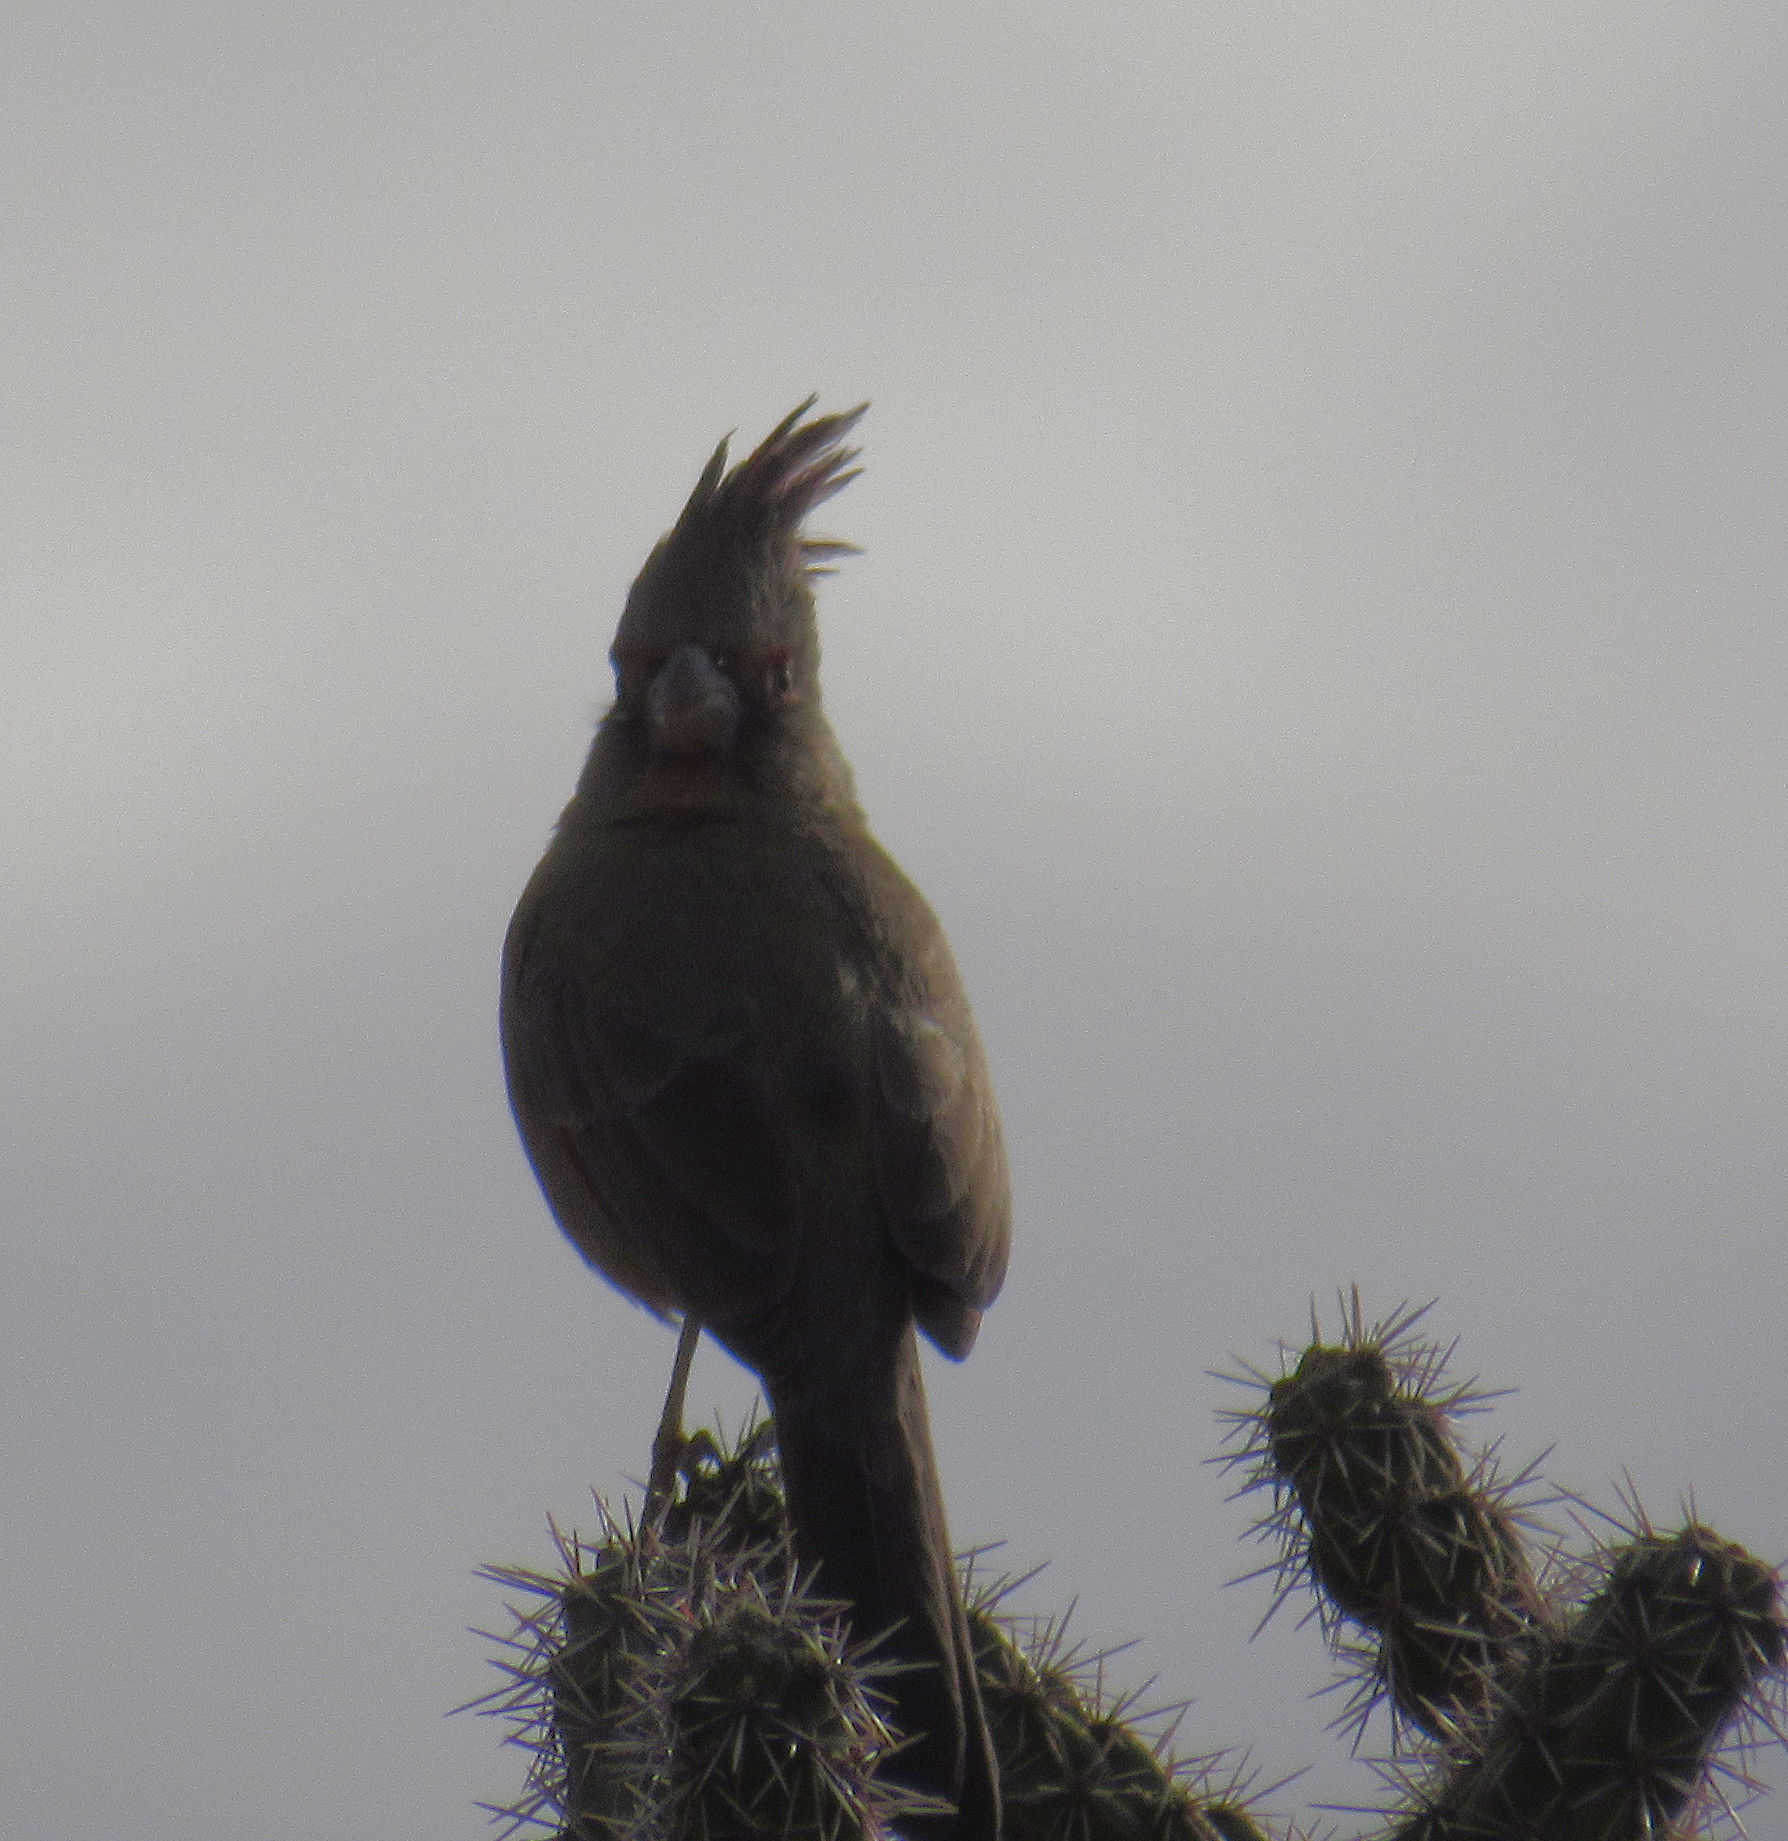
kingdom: Animalia
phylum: Chordata
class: Aves
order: Passeriformes
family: Cardinalidae
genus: Cardinalis
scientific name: Cardinalis sinuatus
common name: Pyrrhuloxia
